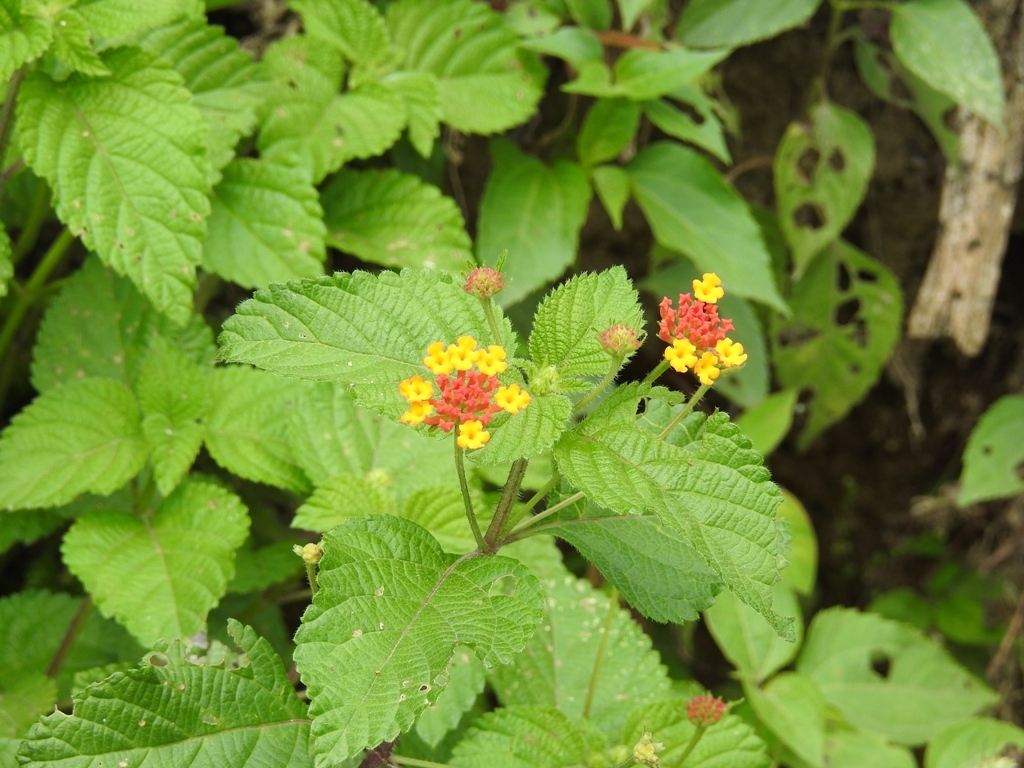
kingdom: Plantae
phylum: Tracheophyta
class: Magnoliopsida
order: Lamiales
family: Verbenaceae
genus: Lantana
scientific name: Lantana camara
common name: Lantana
